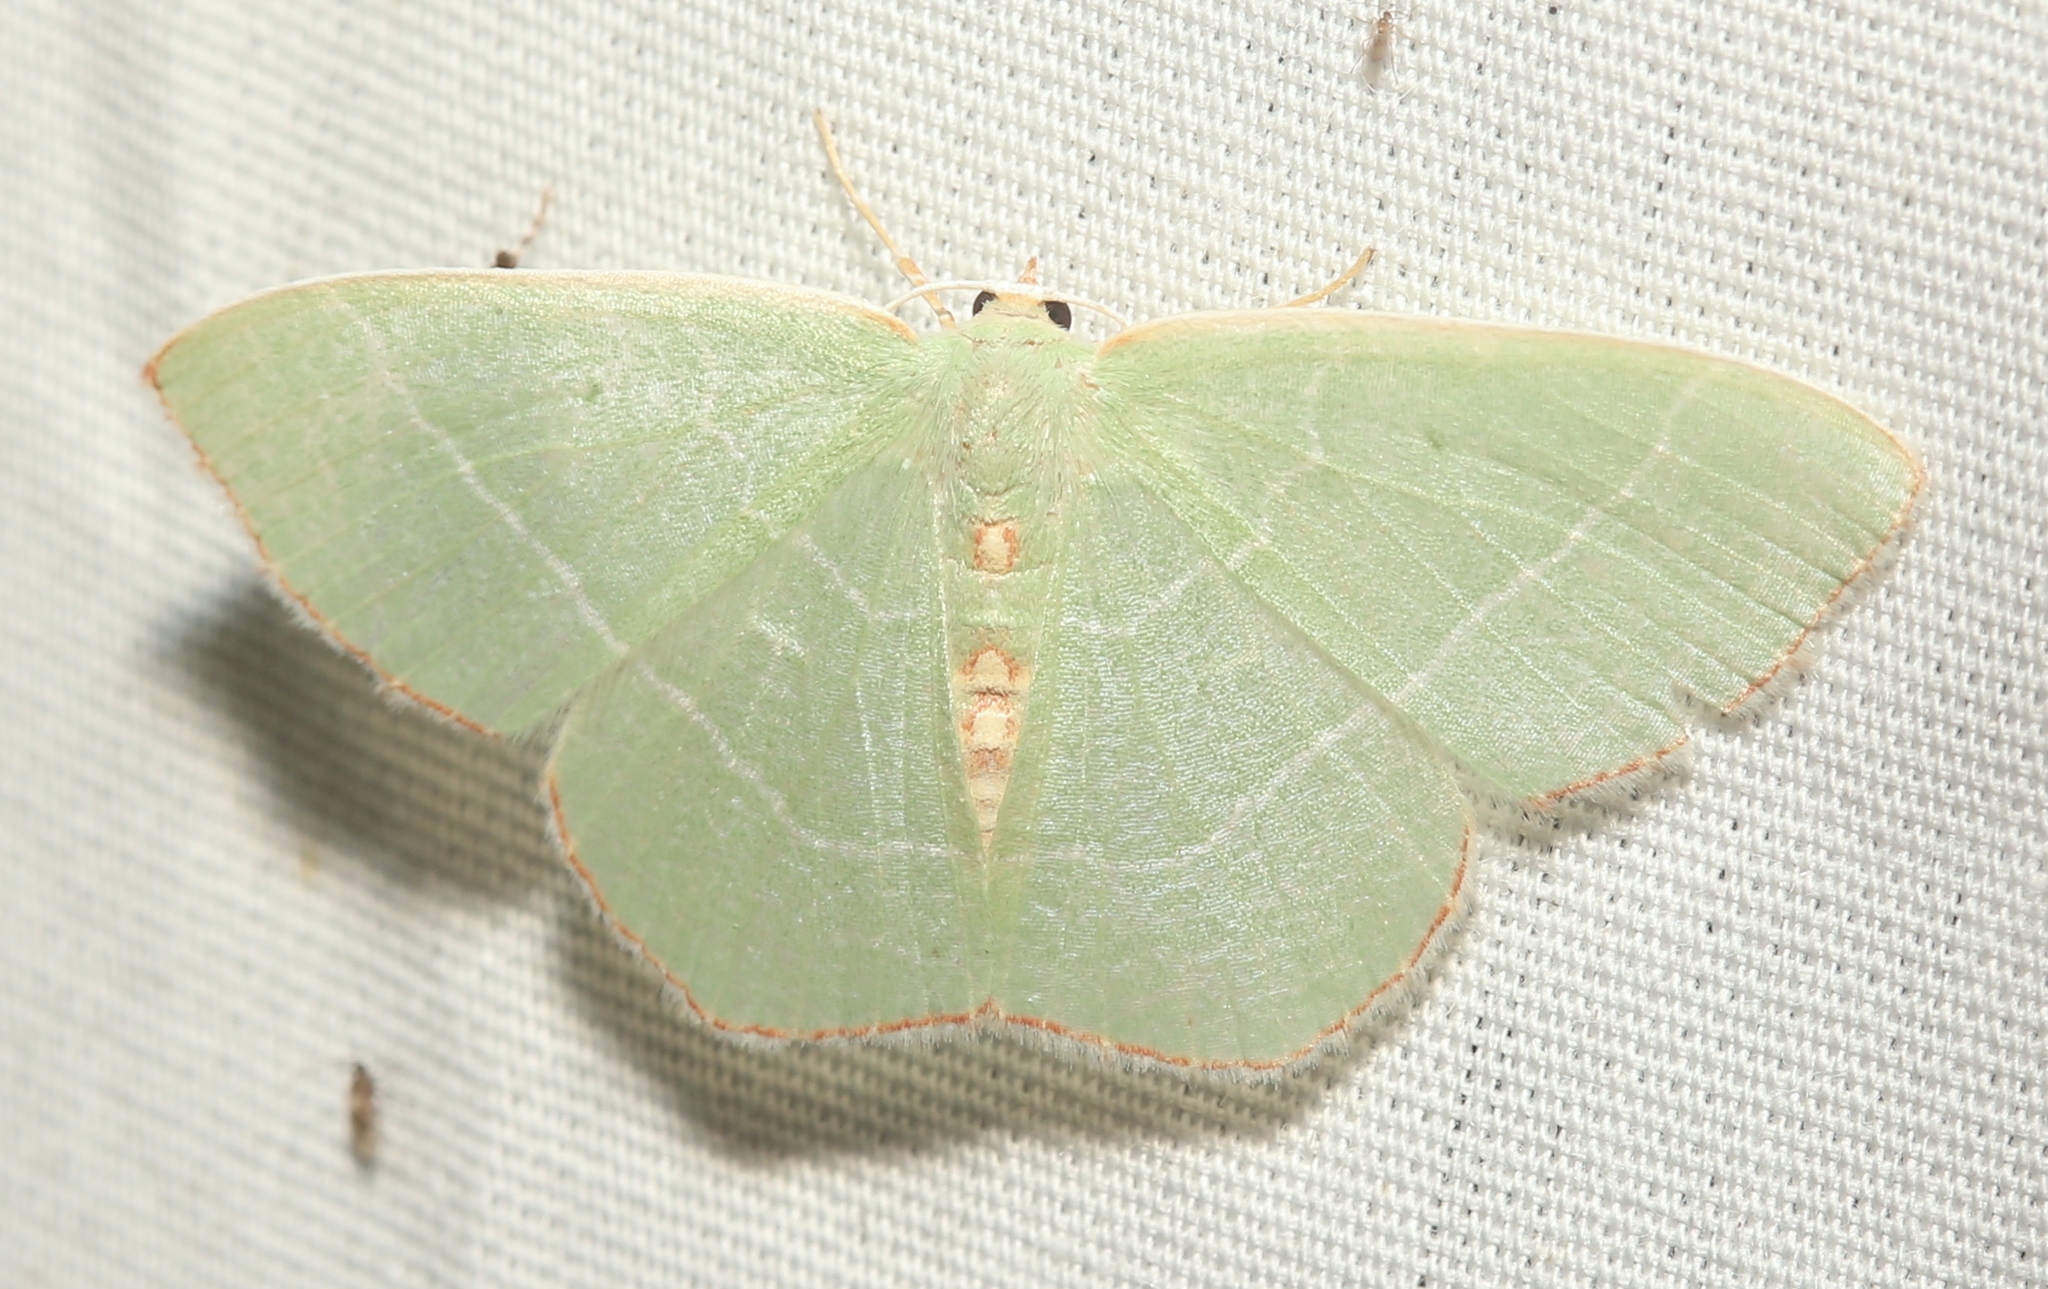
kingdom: Animalia
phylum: Arthropoda
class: Insecta
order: Lepidoptera
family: Geometridae
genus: Nemoria
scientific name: Nemoria bistriaria
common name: Red-fringed emerald
